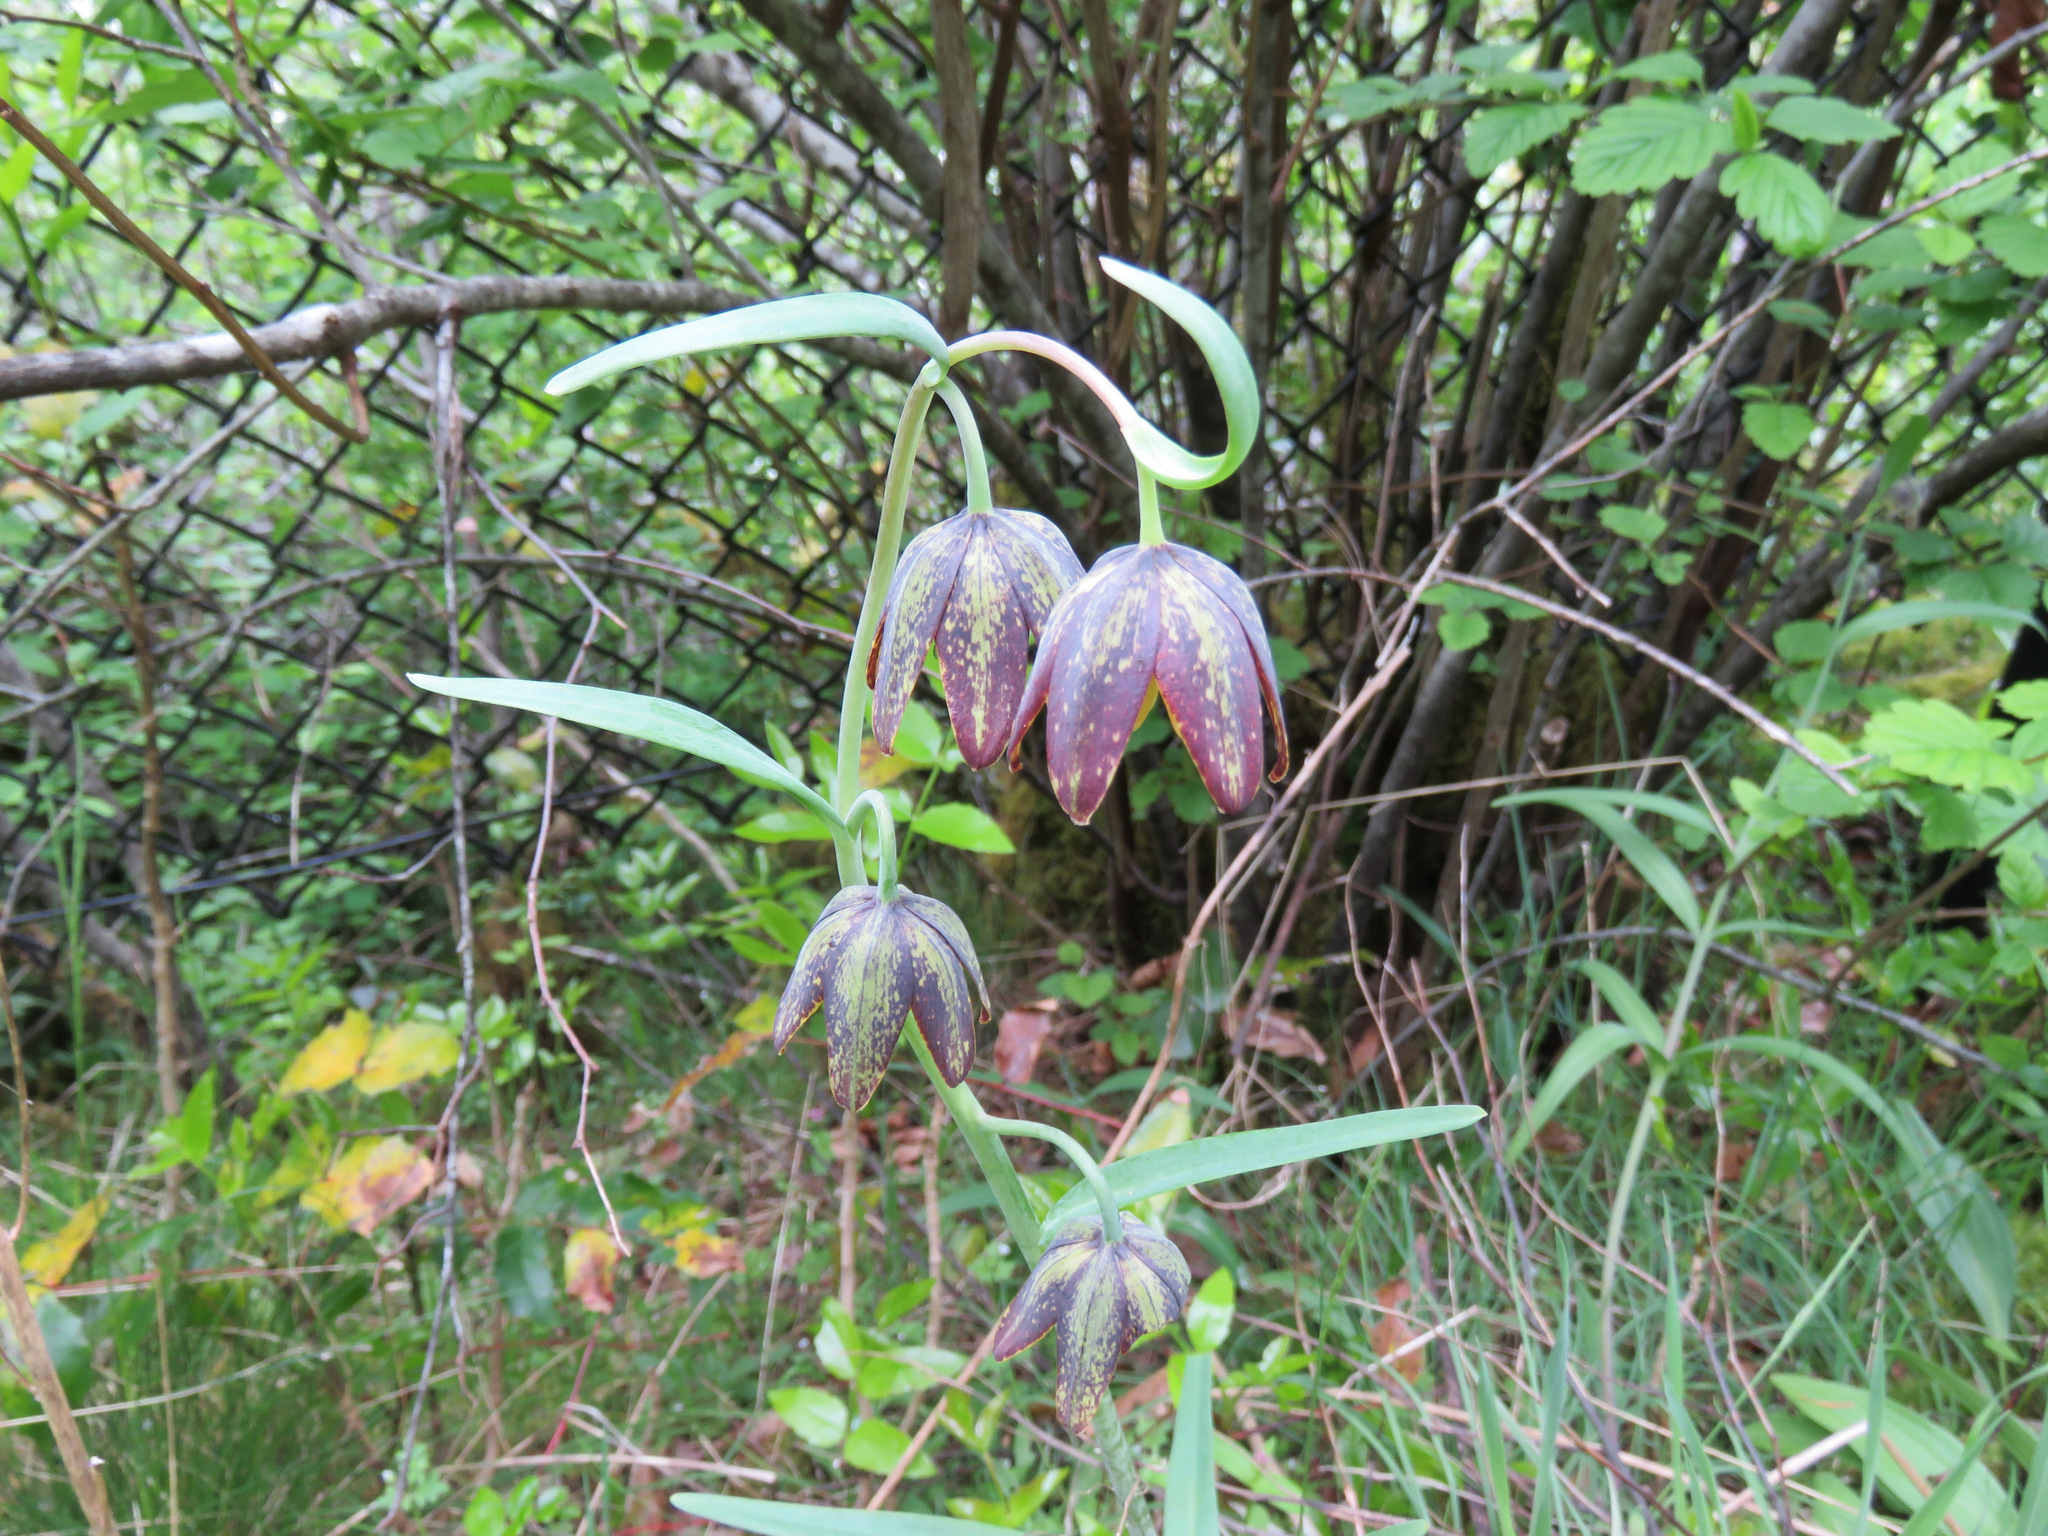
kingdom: Plantae
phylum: Tracheophyta
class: Liliopsida
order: Liliales
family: Liliaceae
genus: Fritillaria
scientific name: Fritillaria affinis
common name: Ojai fritillary
